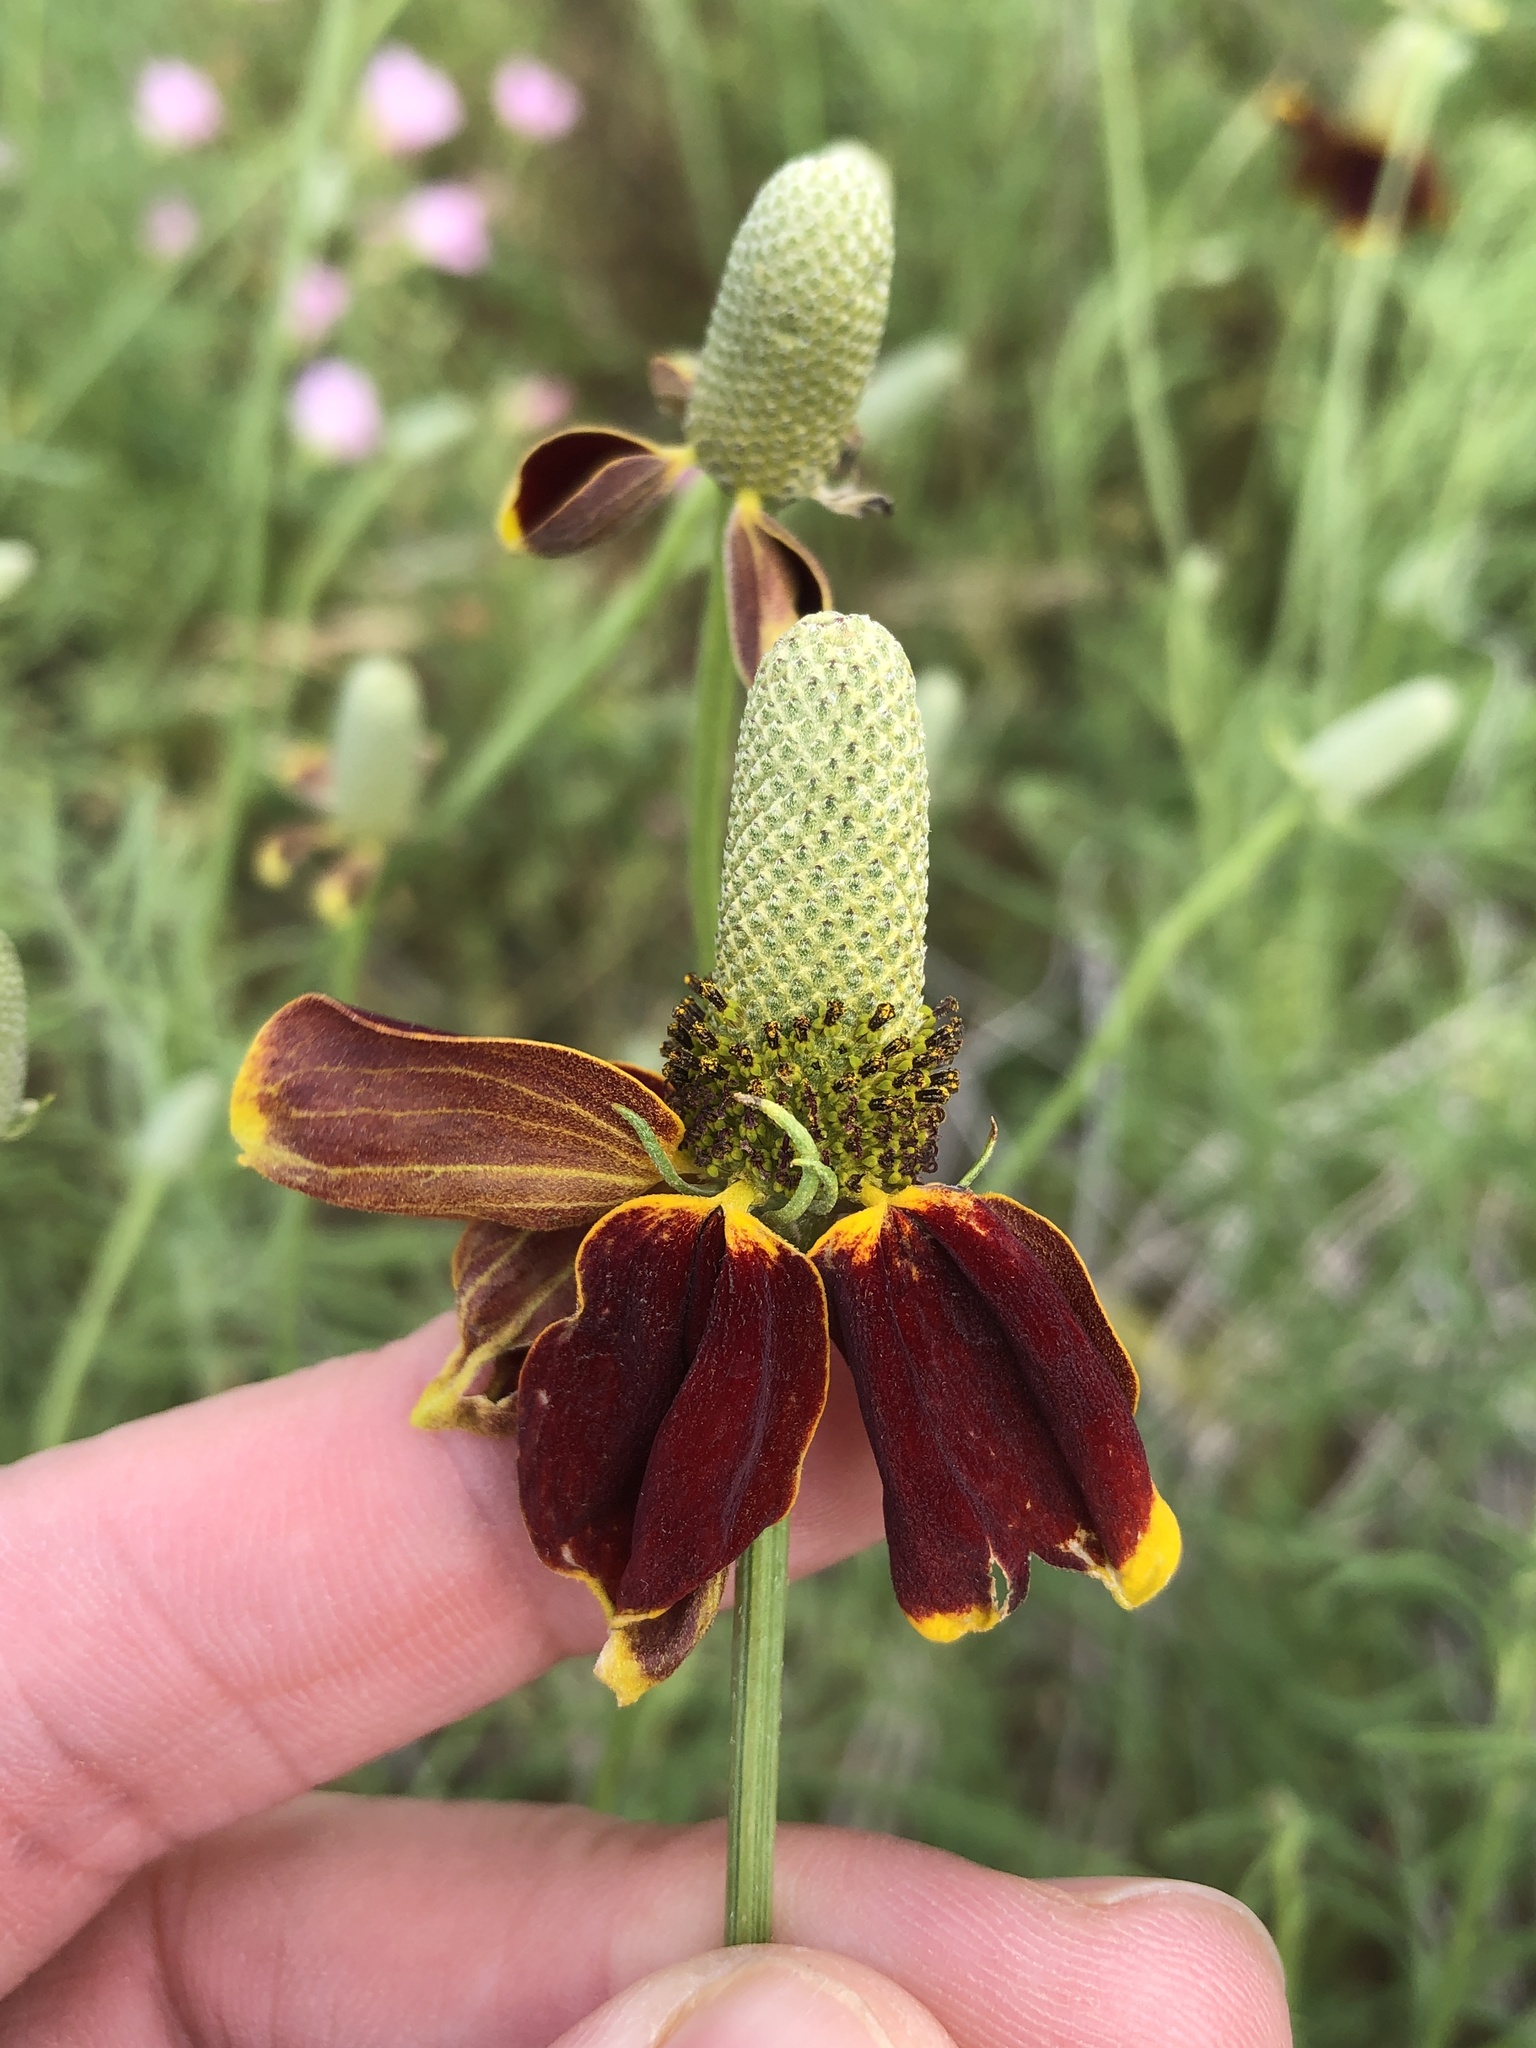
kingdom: Plantae
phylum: Tracheophyta
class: Magnoliopsida
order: Asterales
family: Asteraceae
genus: Ratibida
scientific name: Ratibida columnifera
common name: Prairie coneflower
